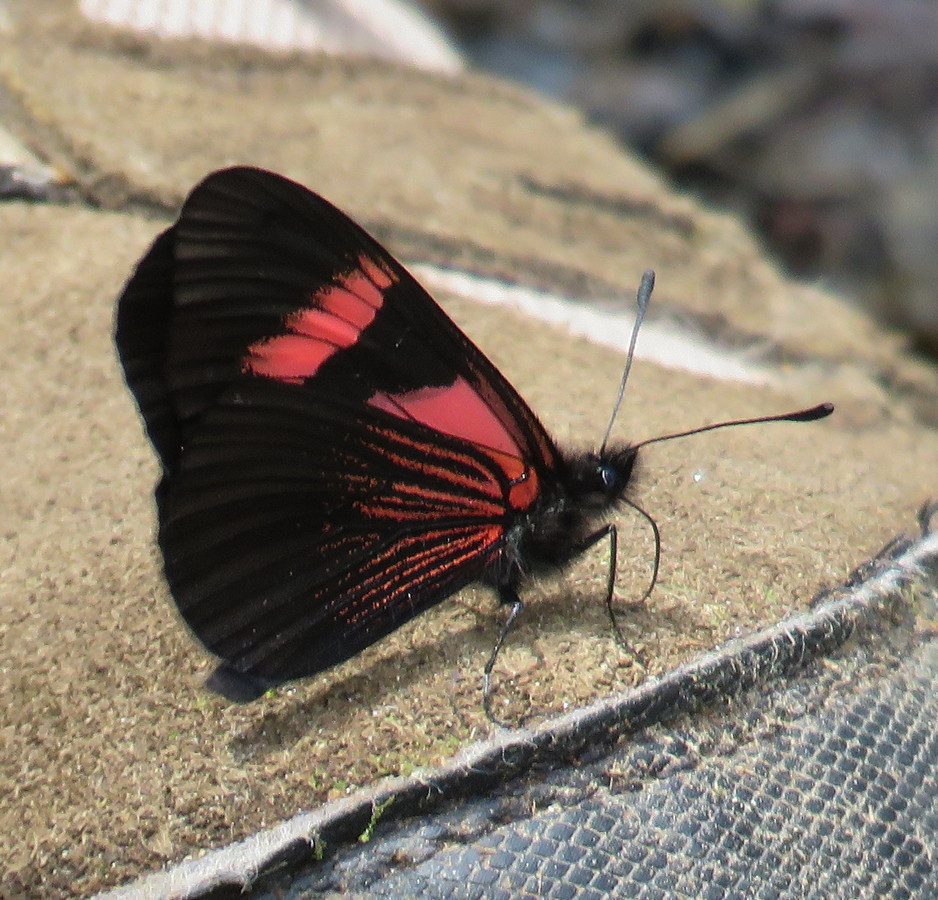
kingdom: Animalia
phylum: Arthropoda
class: Insecta
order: Lepidoptera
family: Nymphalidae
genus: Acraea
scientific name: Acraea Altinote dicaeus
